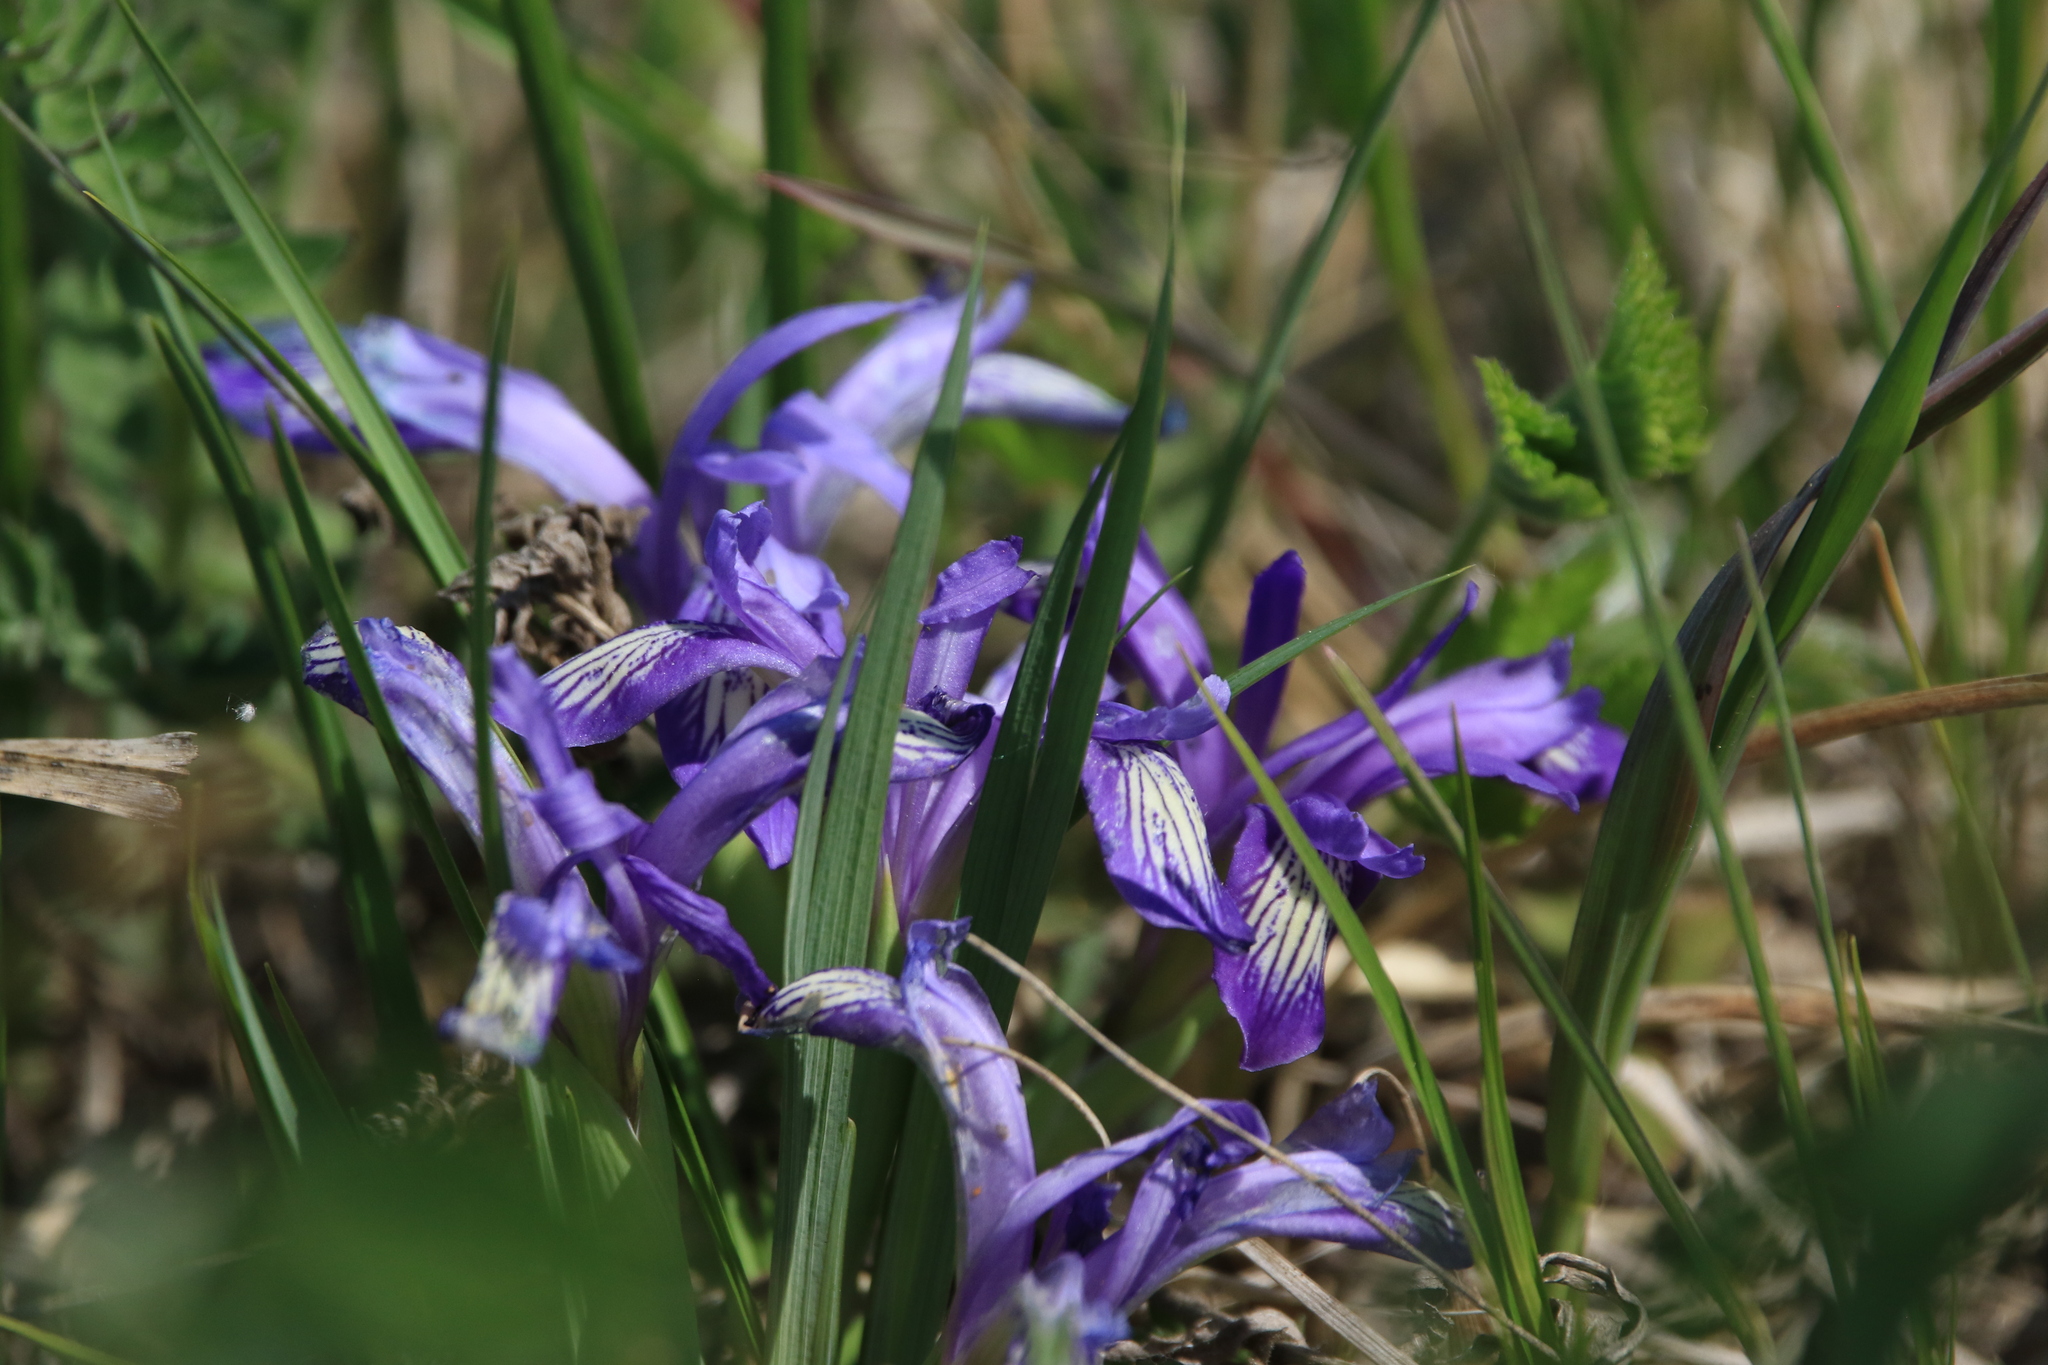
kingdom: Plantae
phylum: Tracheophyta
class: Liliopsida
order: Asparagales
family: Iridaceae
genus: Iris
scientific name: Iris ruthenica
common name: Purple-bract iris
